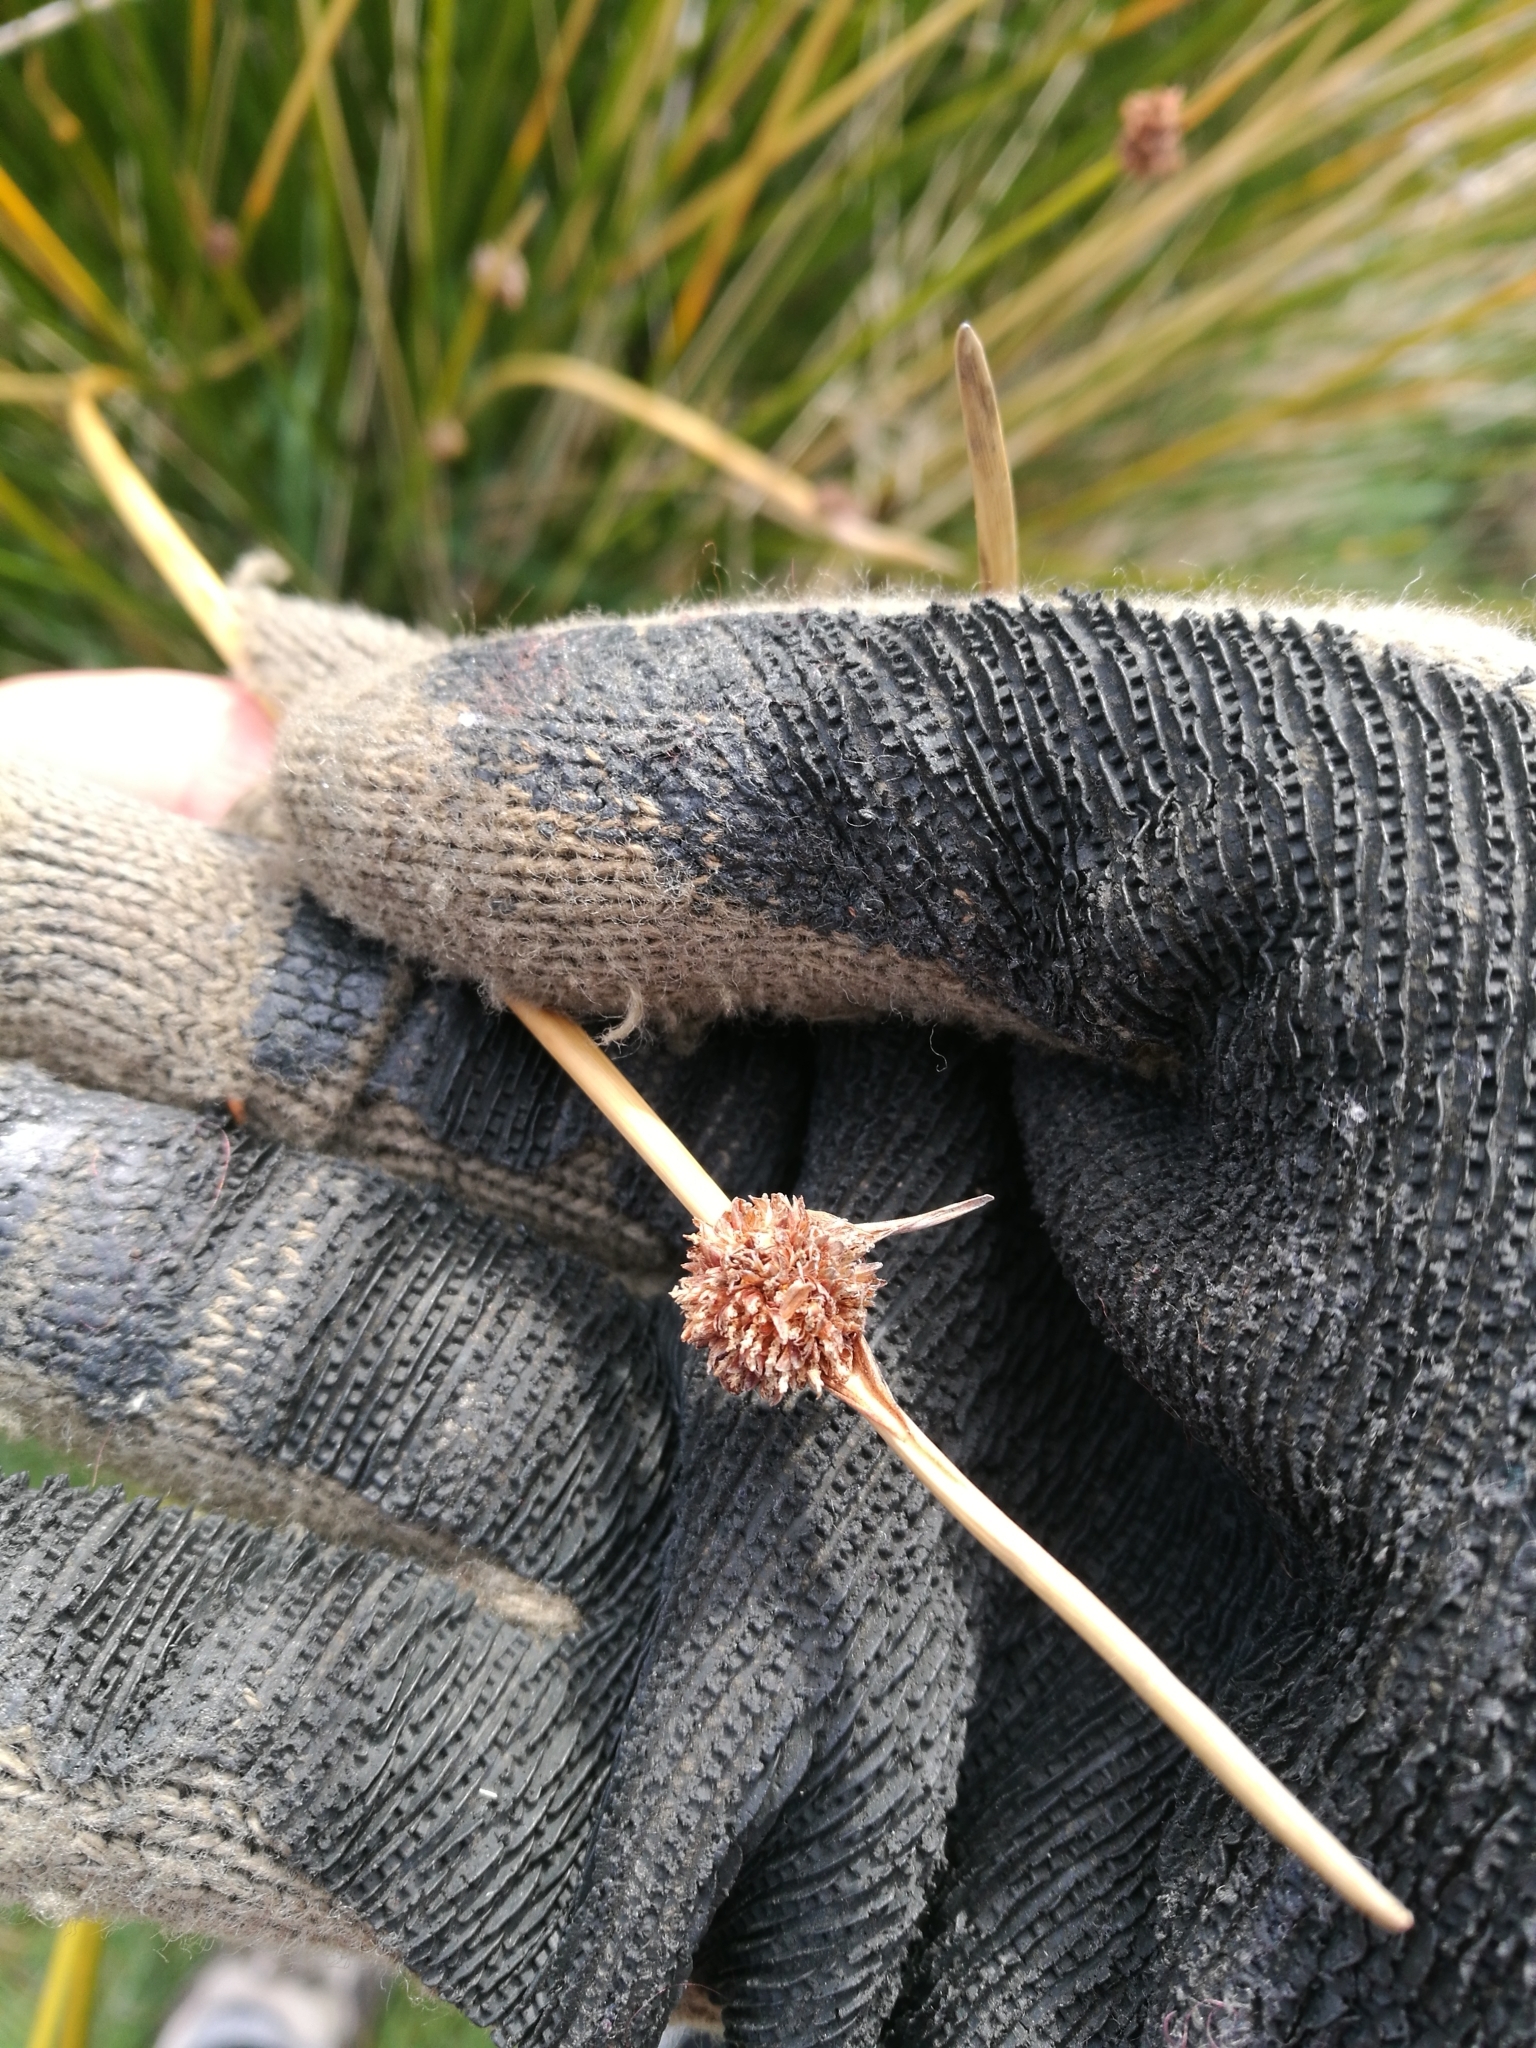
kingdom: Plantae
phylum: Tracheophyta
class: Liliopsida
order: Poales
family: Cyperaceae
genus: Ficinia
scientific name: Ficinia nodosa
